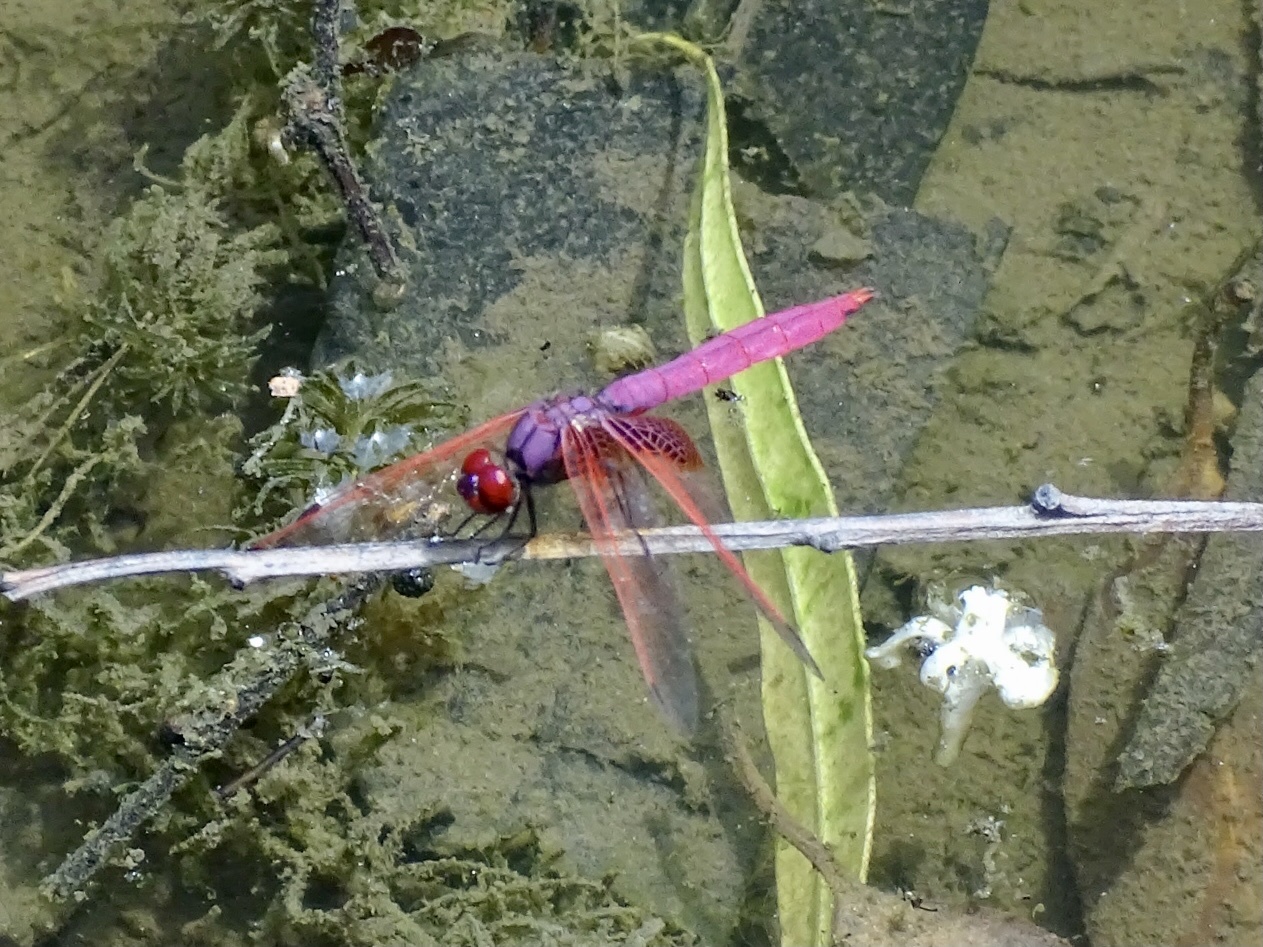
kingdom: Animalia
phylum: Arthropoda
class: Insecta
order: Odonata
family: Libellulidae
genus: Trithemis
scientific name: Trithemis aurora
